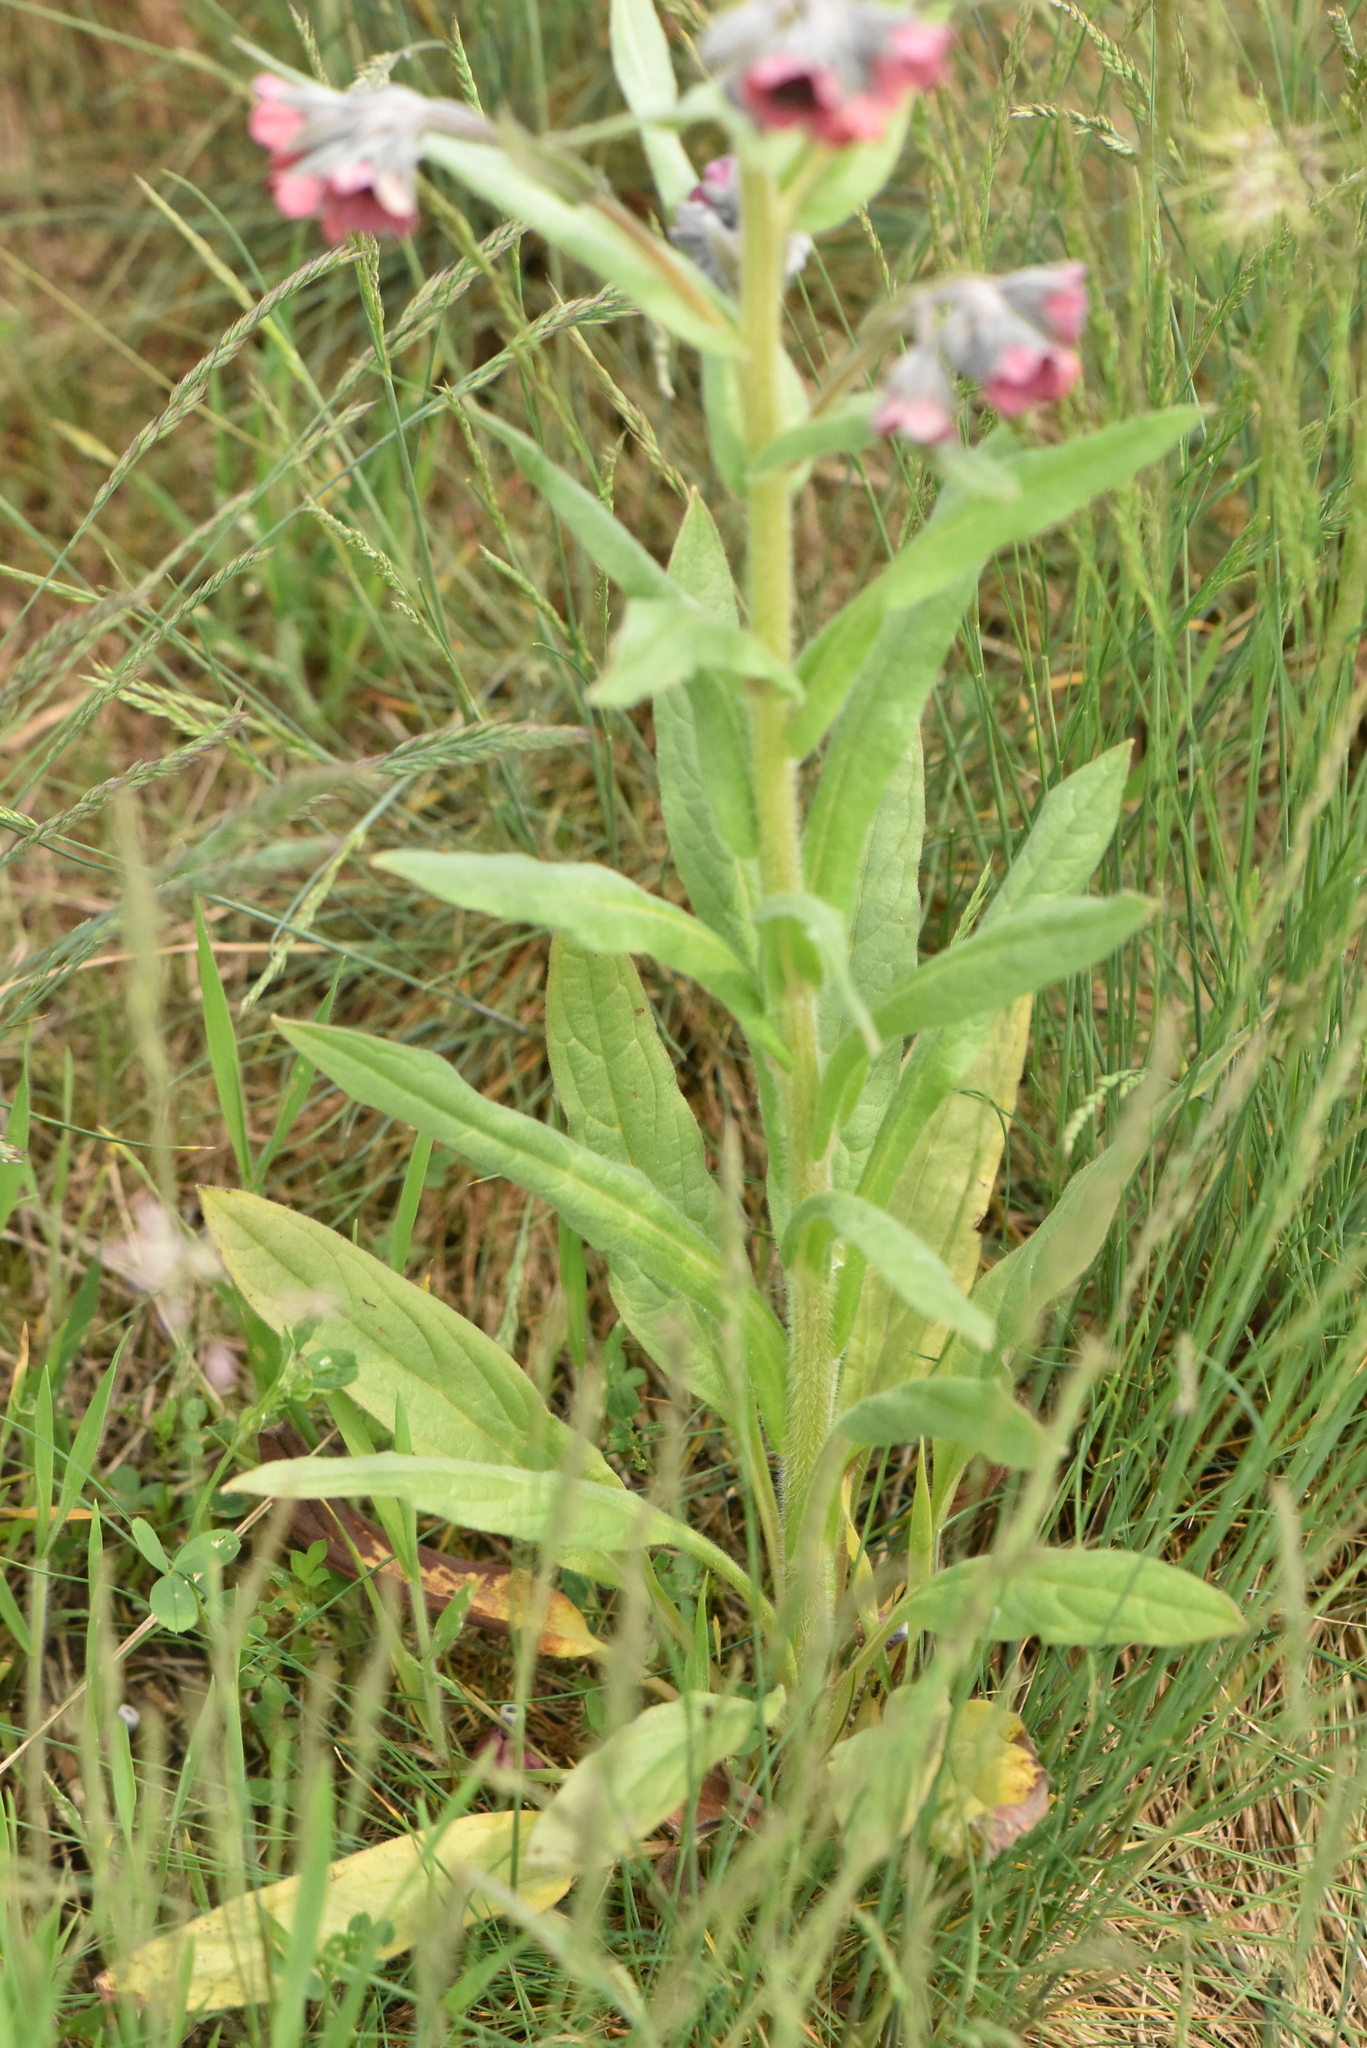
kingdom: Plantae
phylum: Tracheophyta
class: Magnoliopsida
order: Boraginales
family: Boraginaceae
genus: Cynoglossum
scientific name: Cynoglossum officinale
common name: Hound's-tongue
